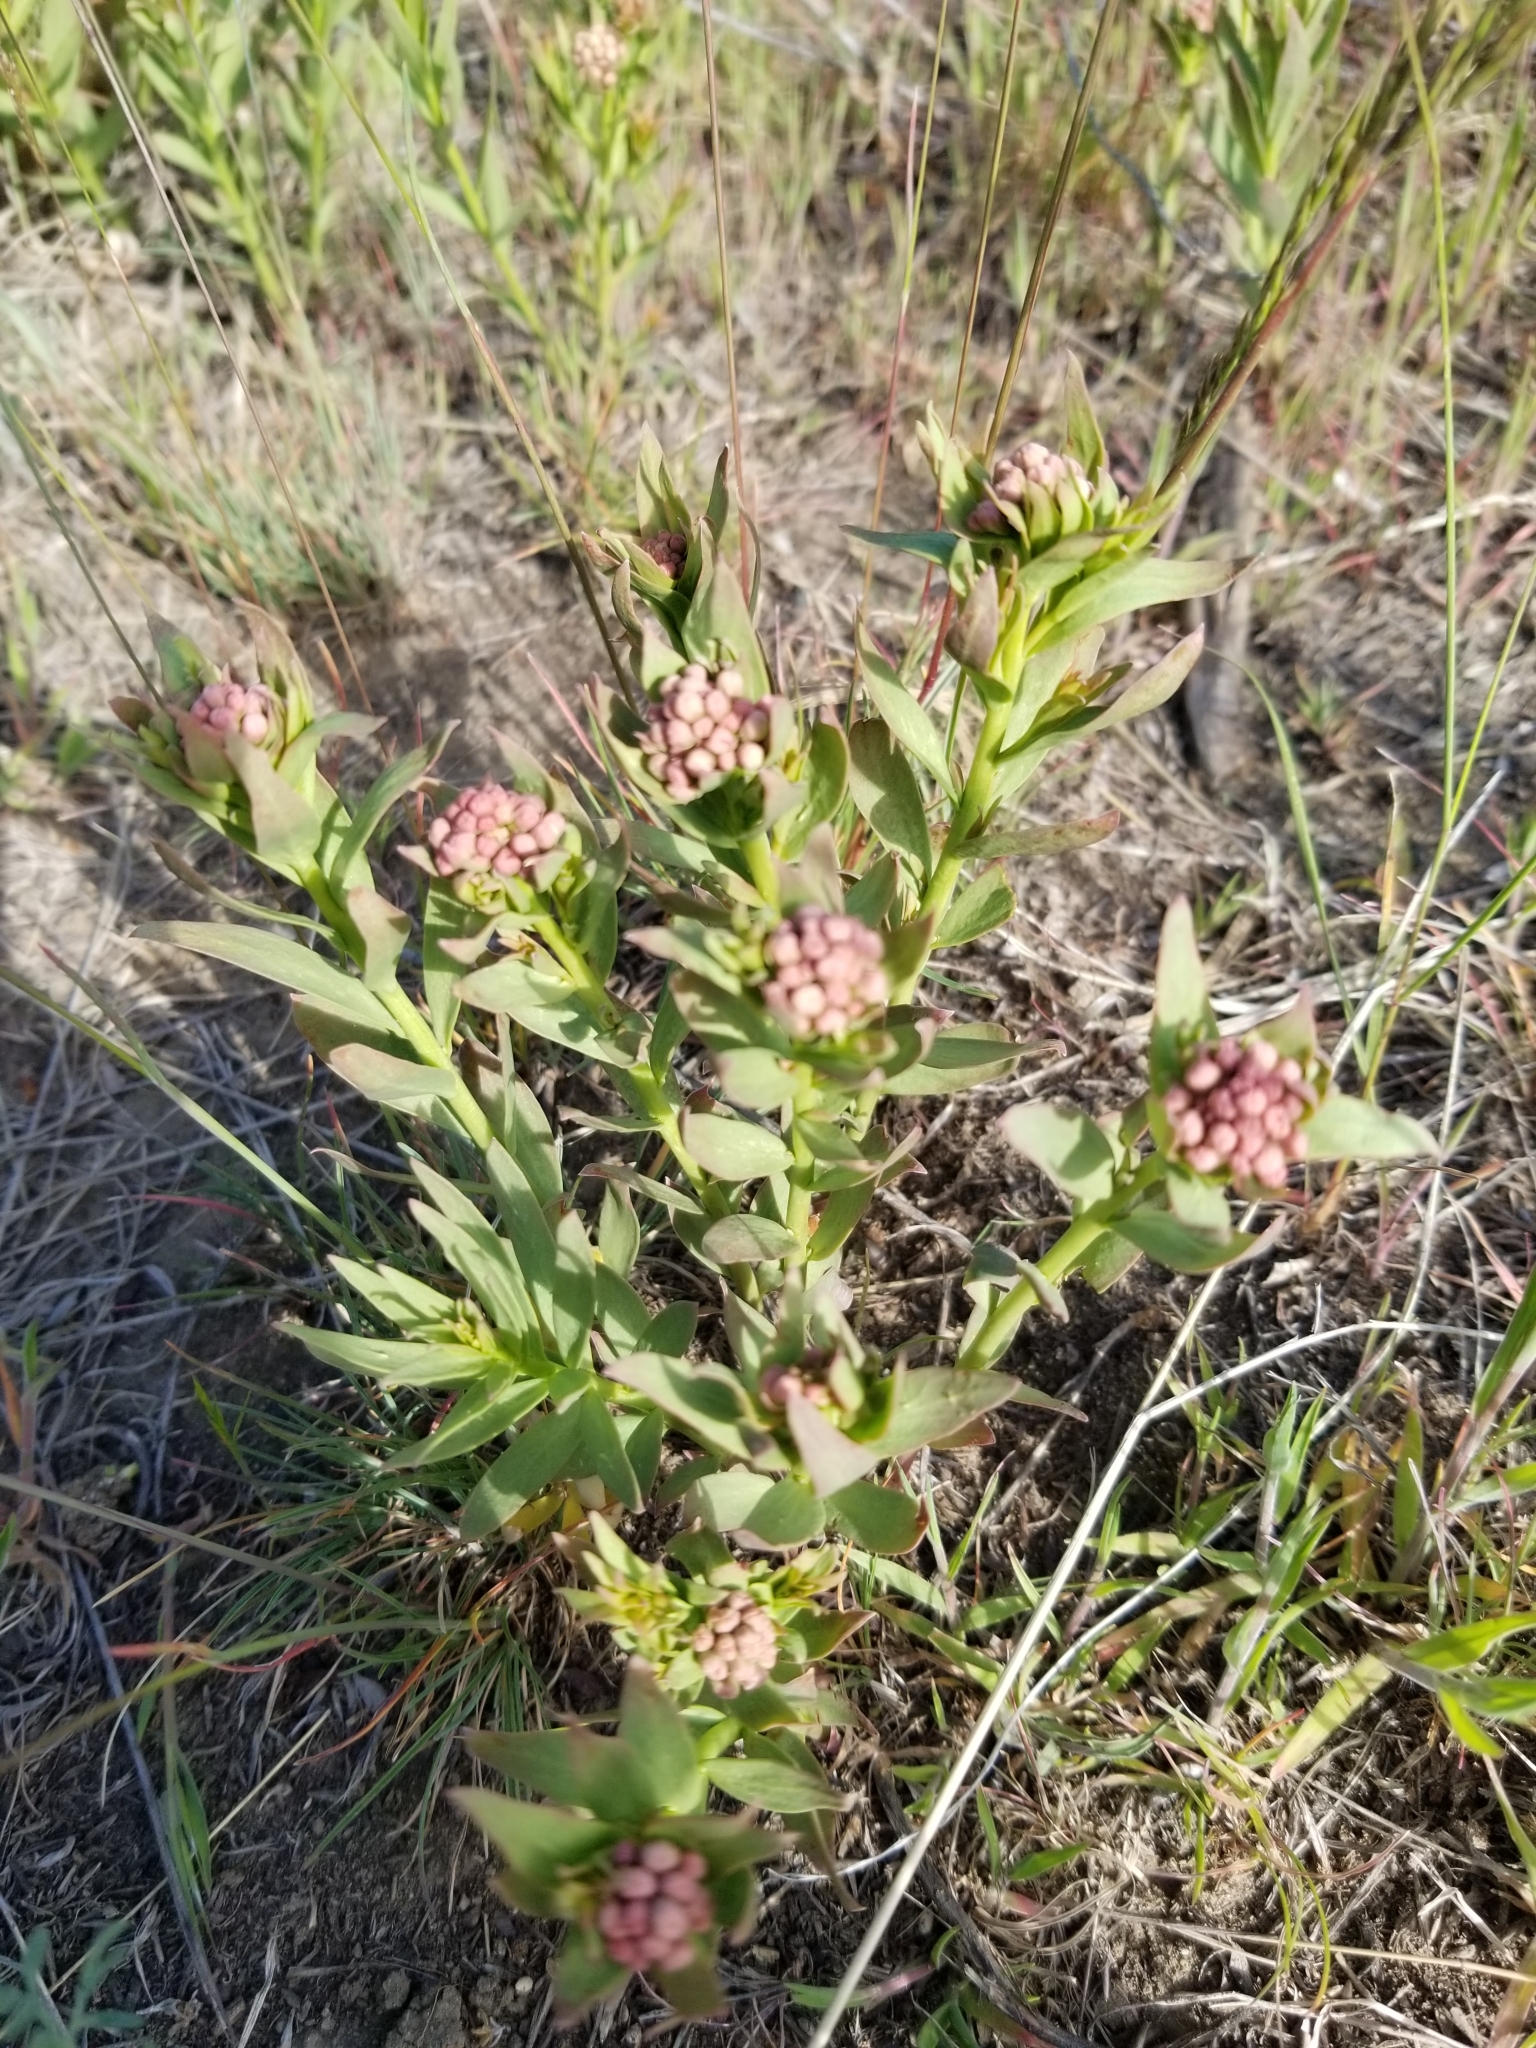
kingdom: Plantae
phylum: Tracheophyta
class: Magnoliopsida
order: Santalales
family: Comandraceae
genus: Comandra
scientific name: Comandra umbellata
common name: Bastard toadflax
